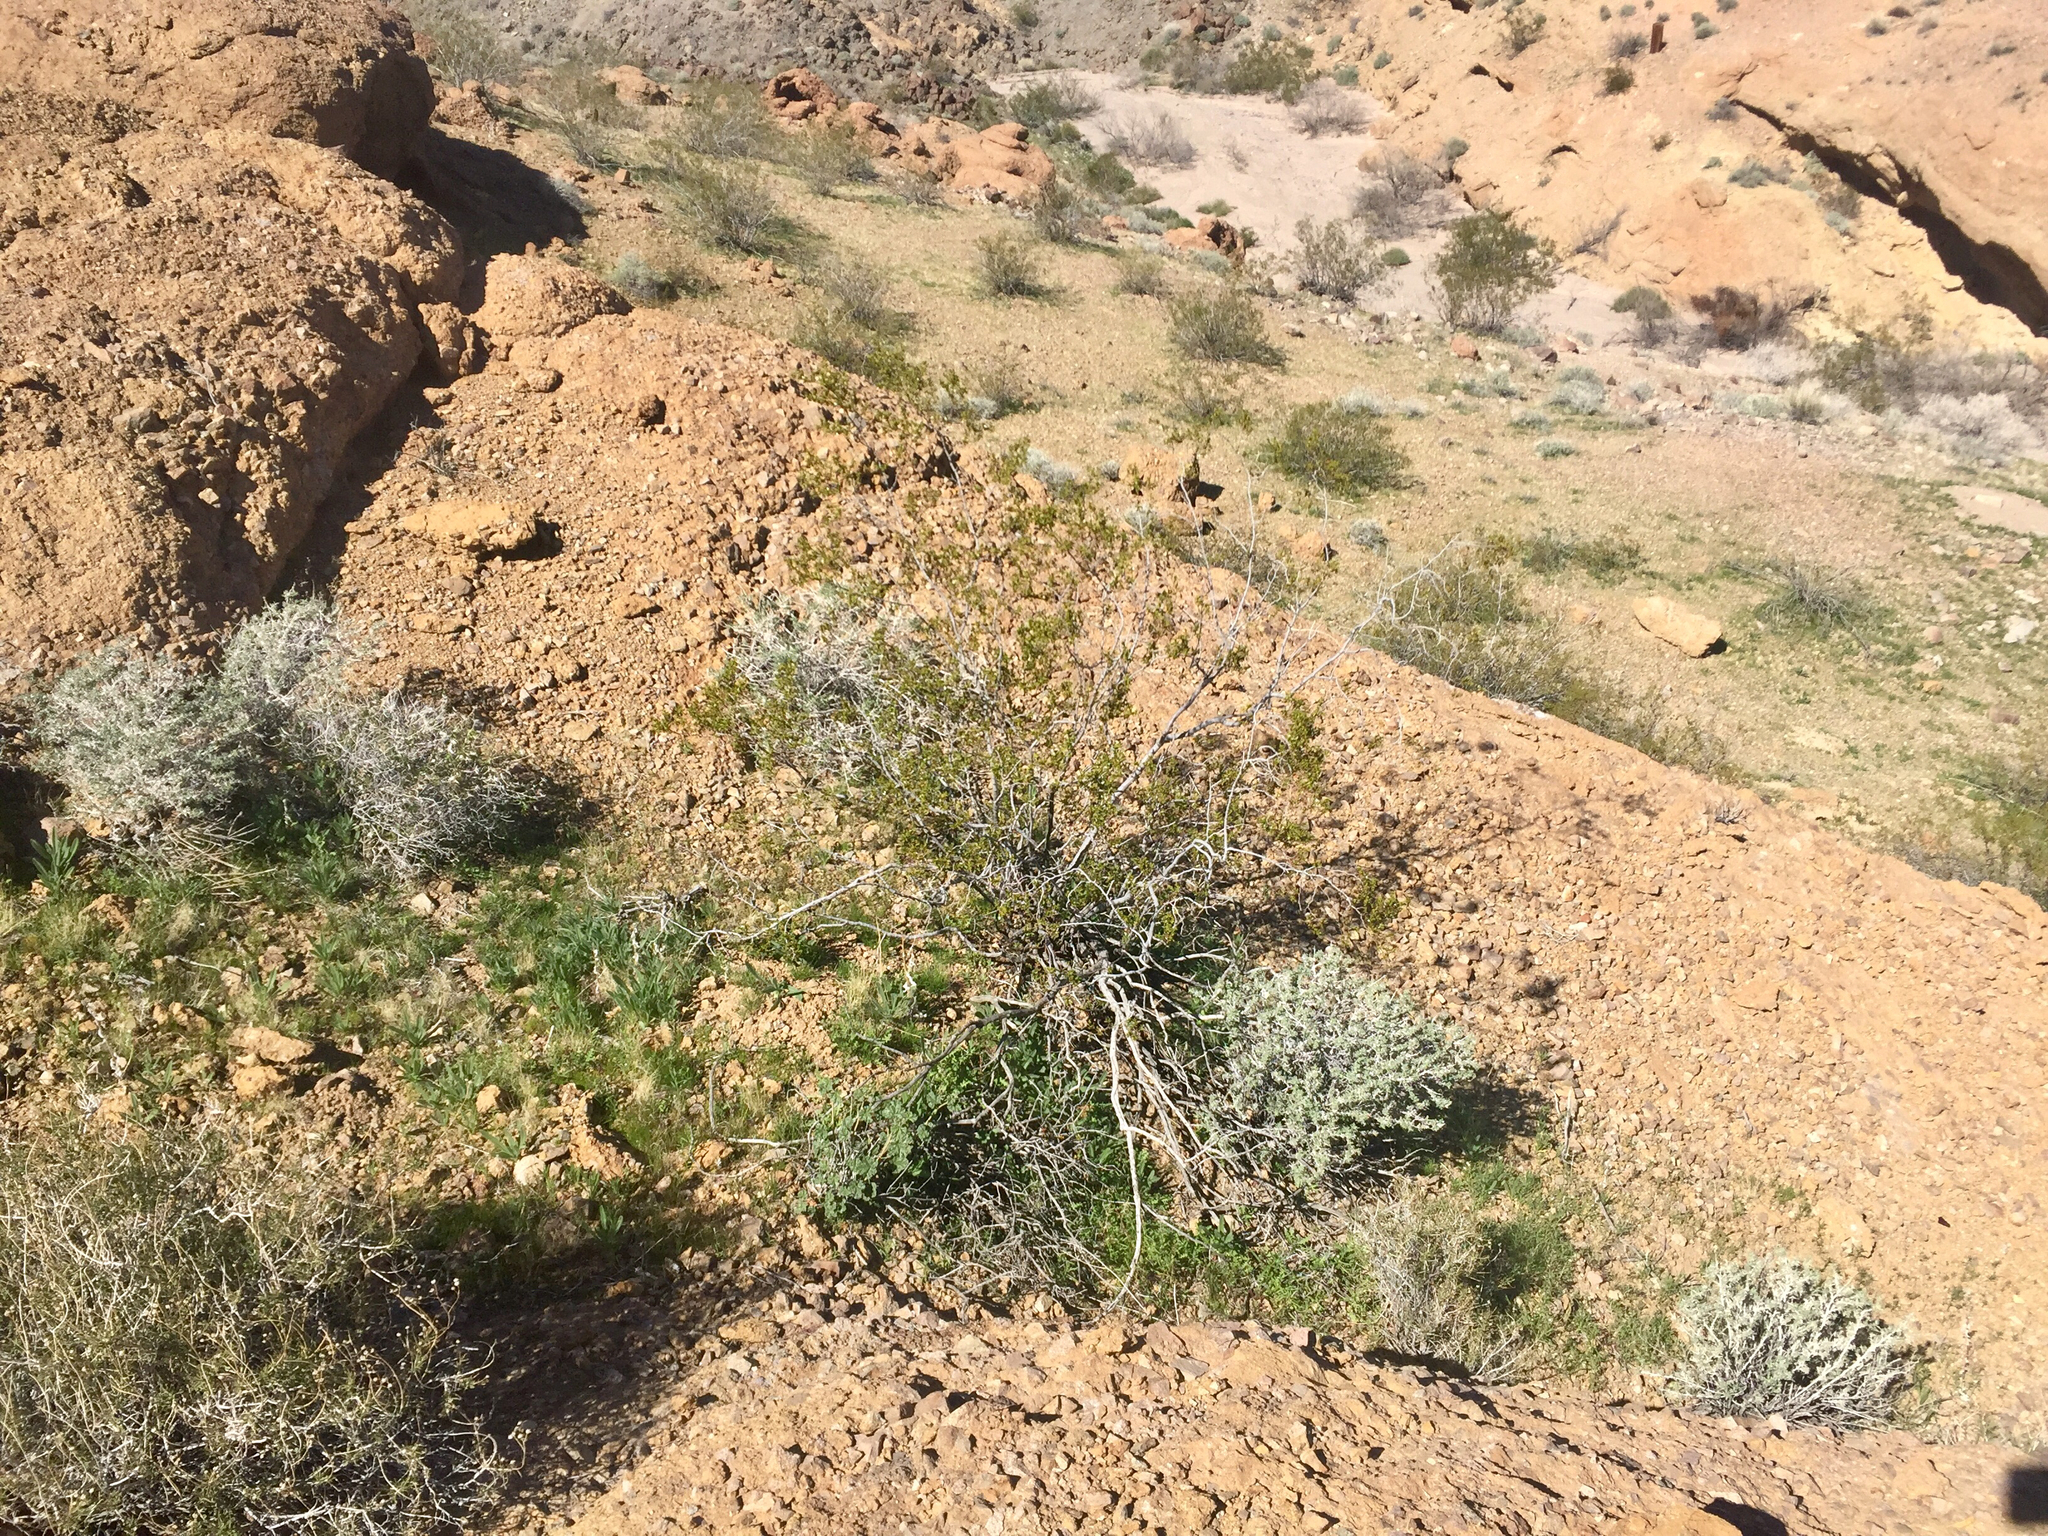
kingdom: Plantae
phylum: Tracheophyta
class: Magnoliopsida
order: Zygophyllales
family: Zygophyllaceae
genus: Larrea
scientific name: Larrea tridentata
